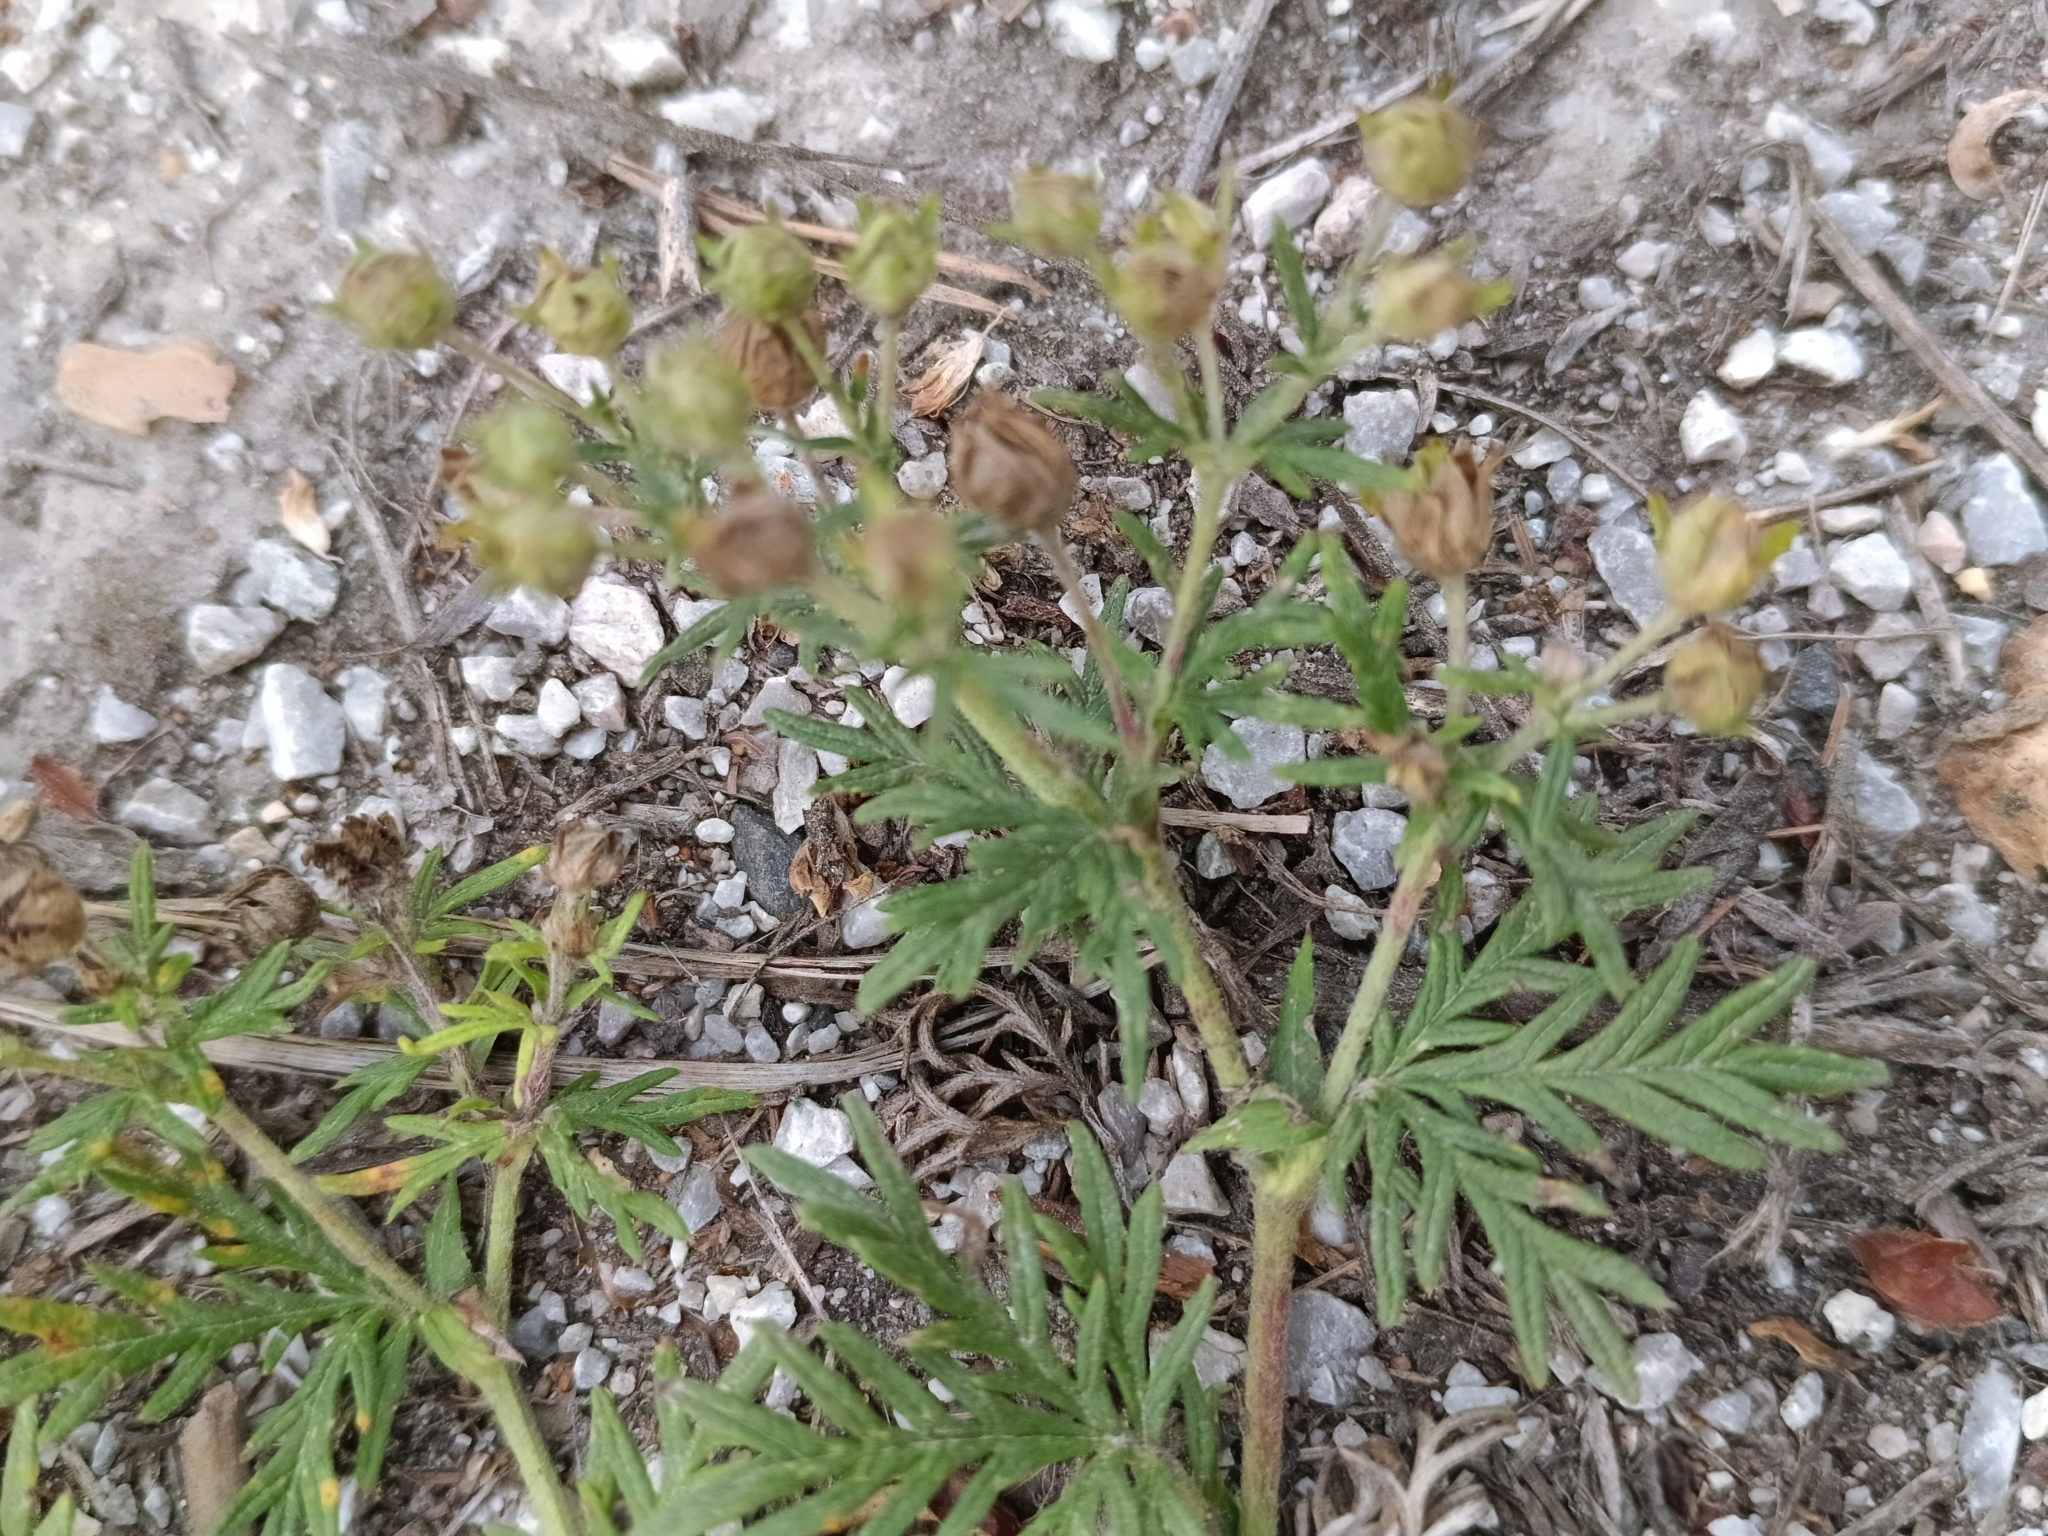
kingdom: Plantae
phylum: Tracheophyta
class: Magnoliopsida
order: Rosales
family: Rosaceae
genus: Potentilla
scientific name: Potentilla tergemina
